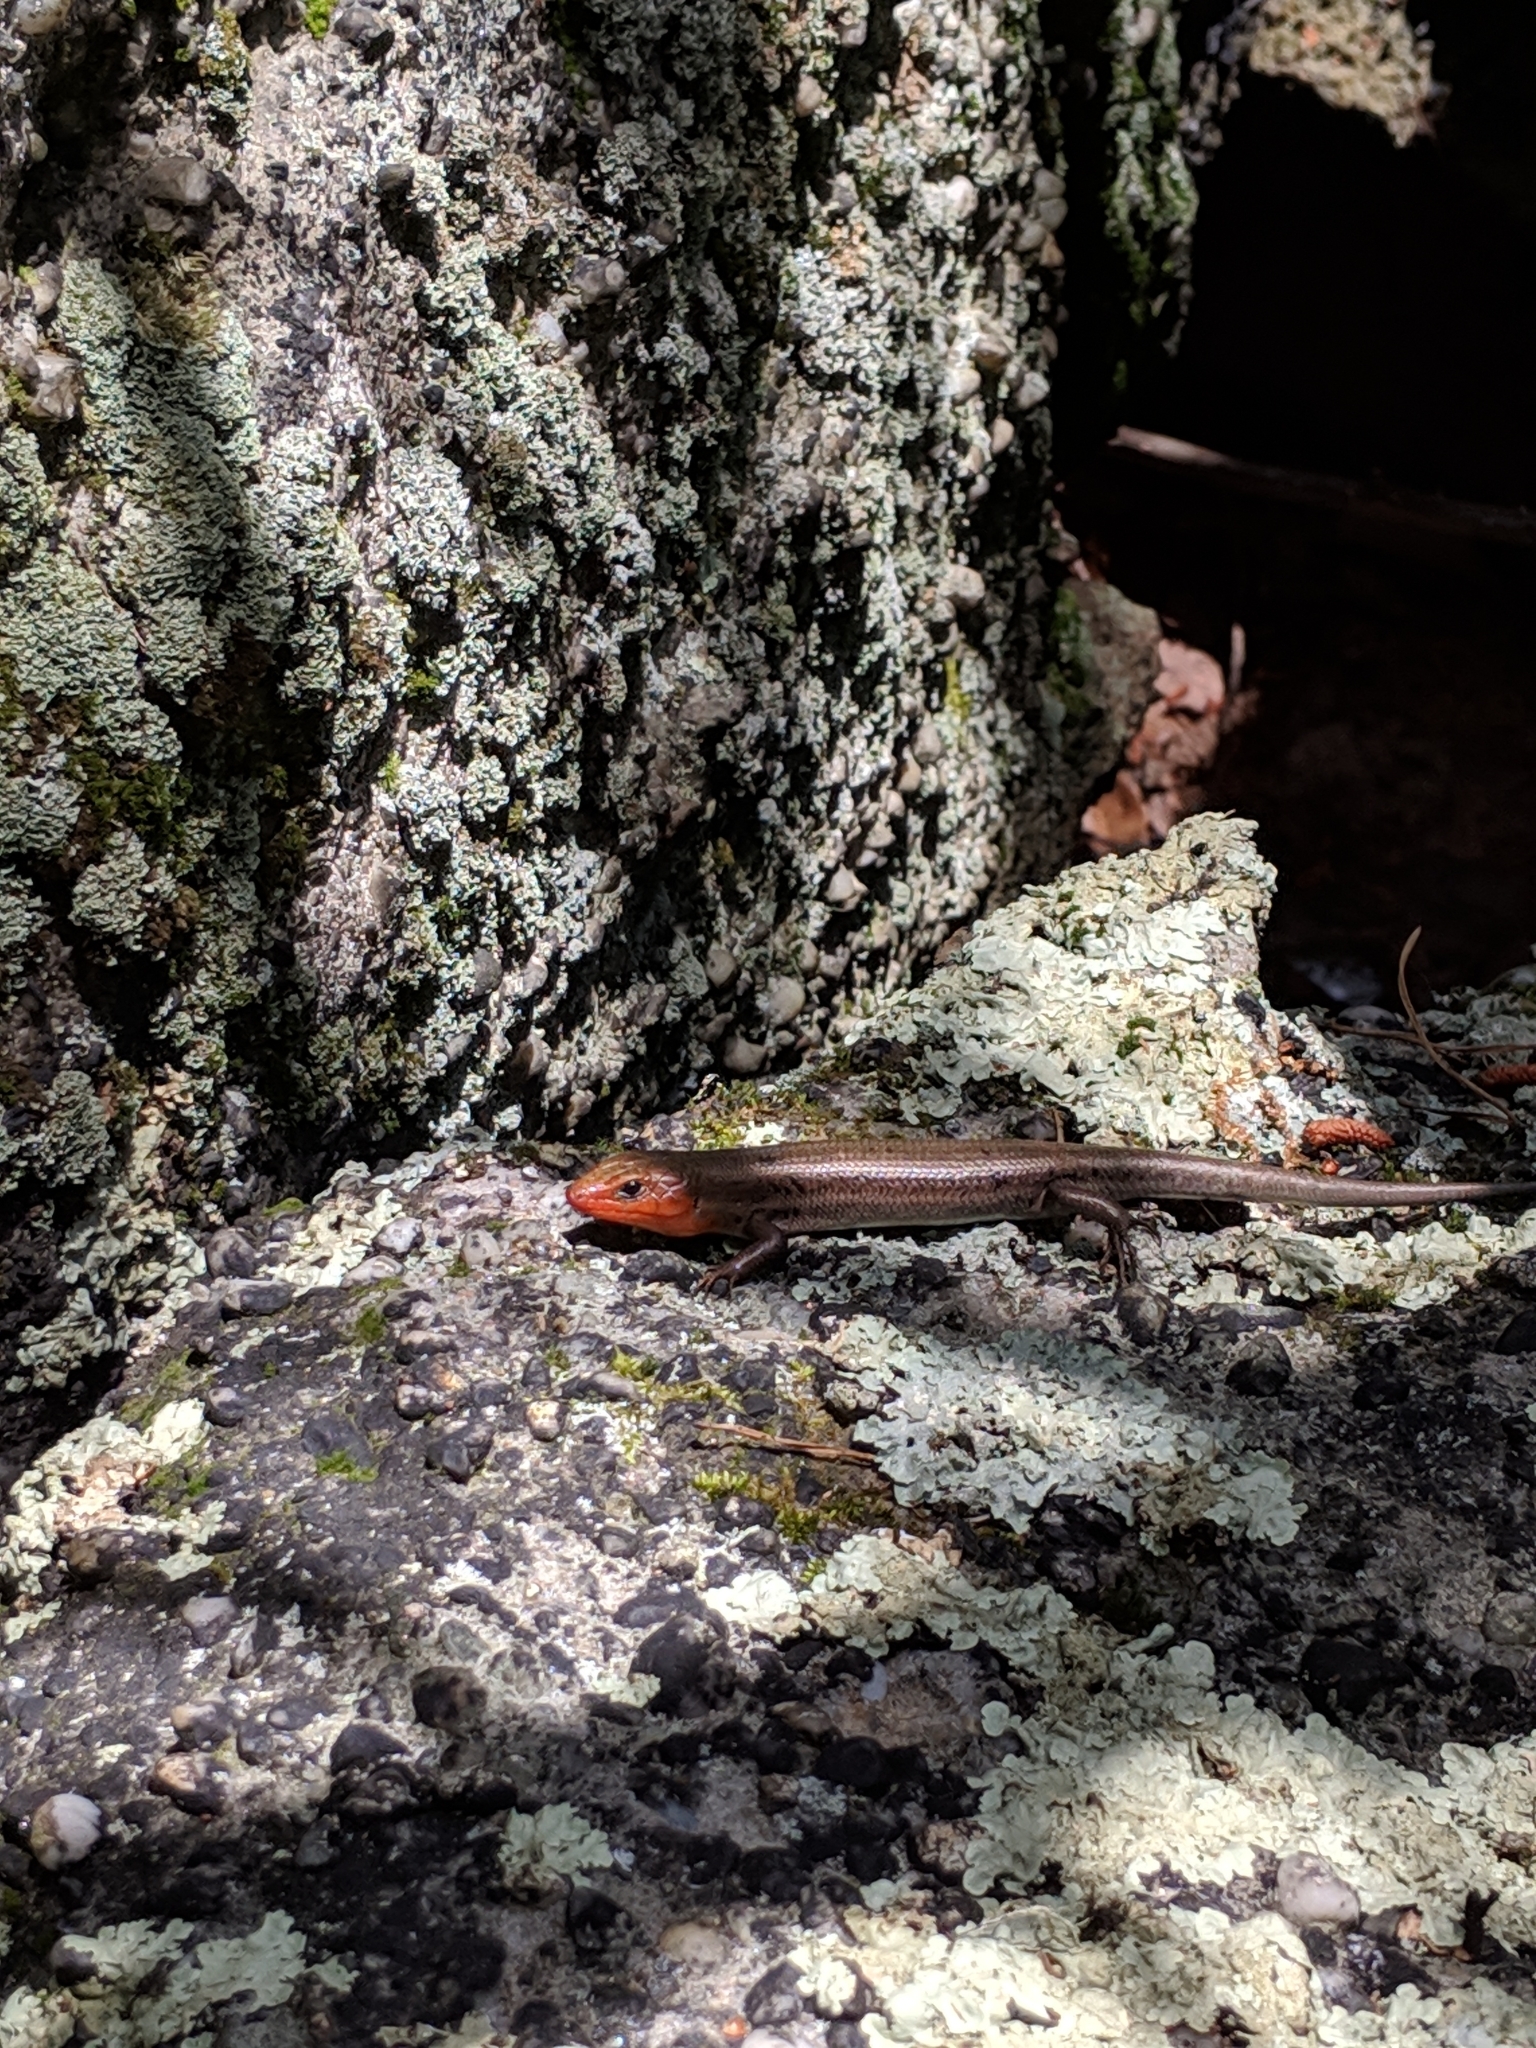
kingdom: Animalia
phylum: Chordata
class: Squamata
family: Scincidae
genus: Plestiodon
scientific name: Plestiodon laticeps
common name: Broadhead skink
